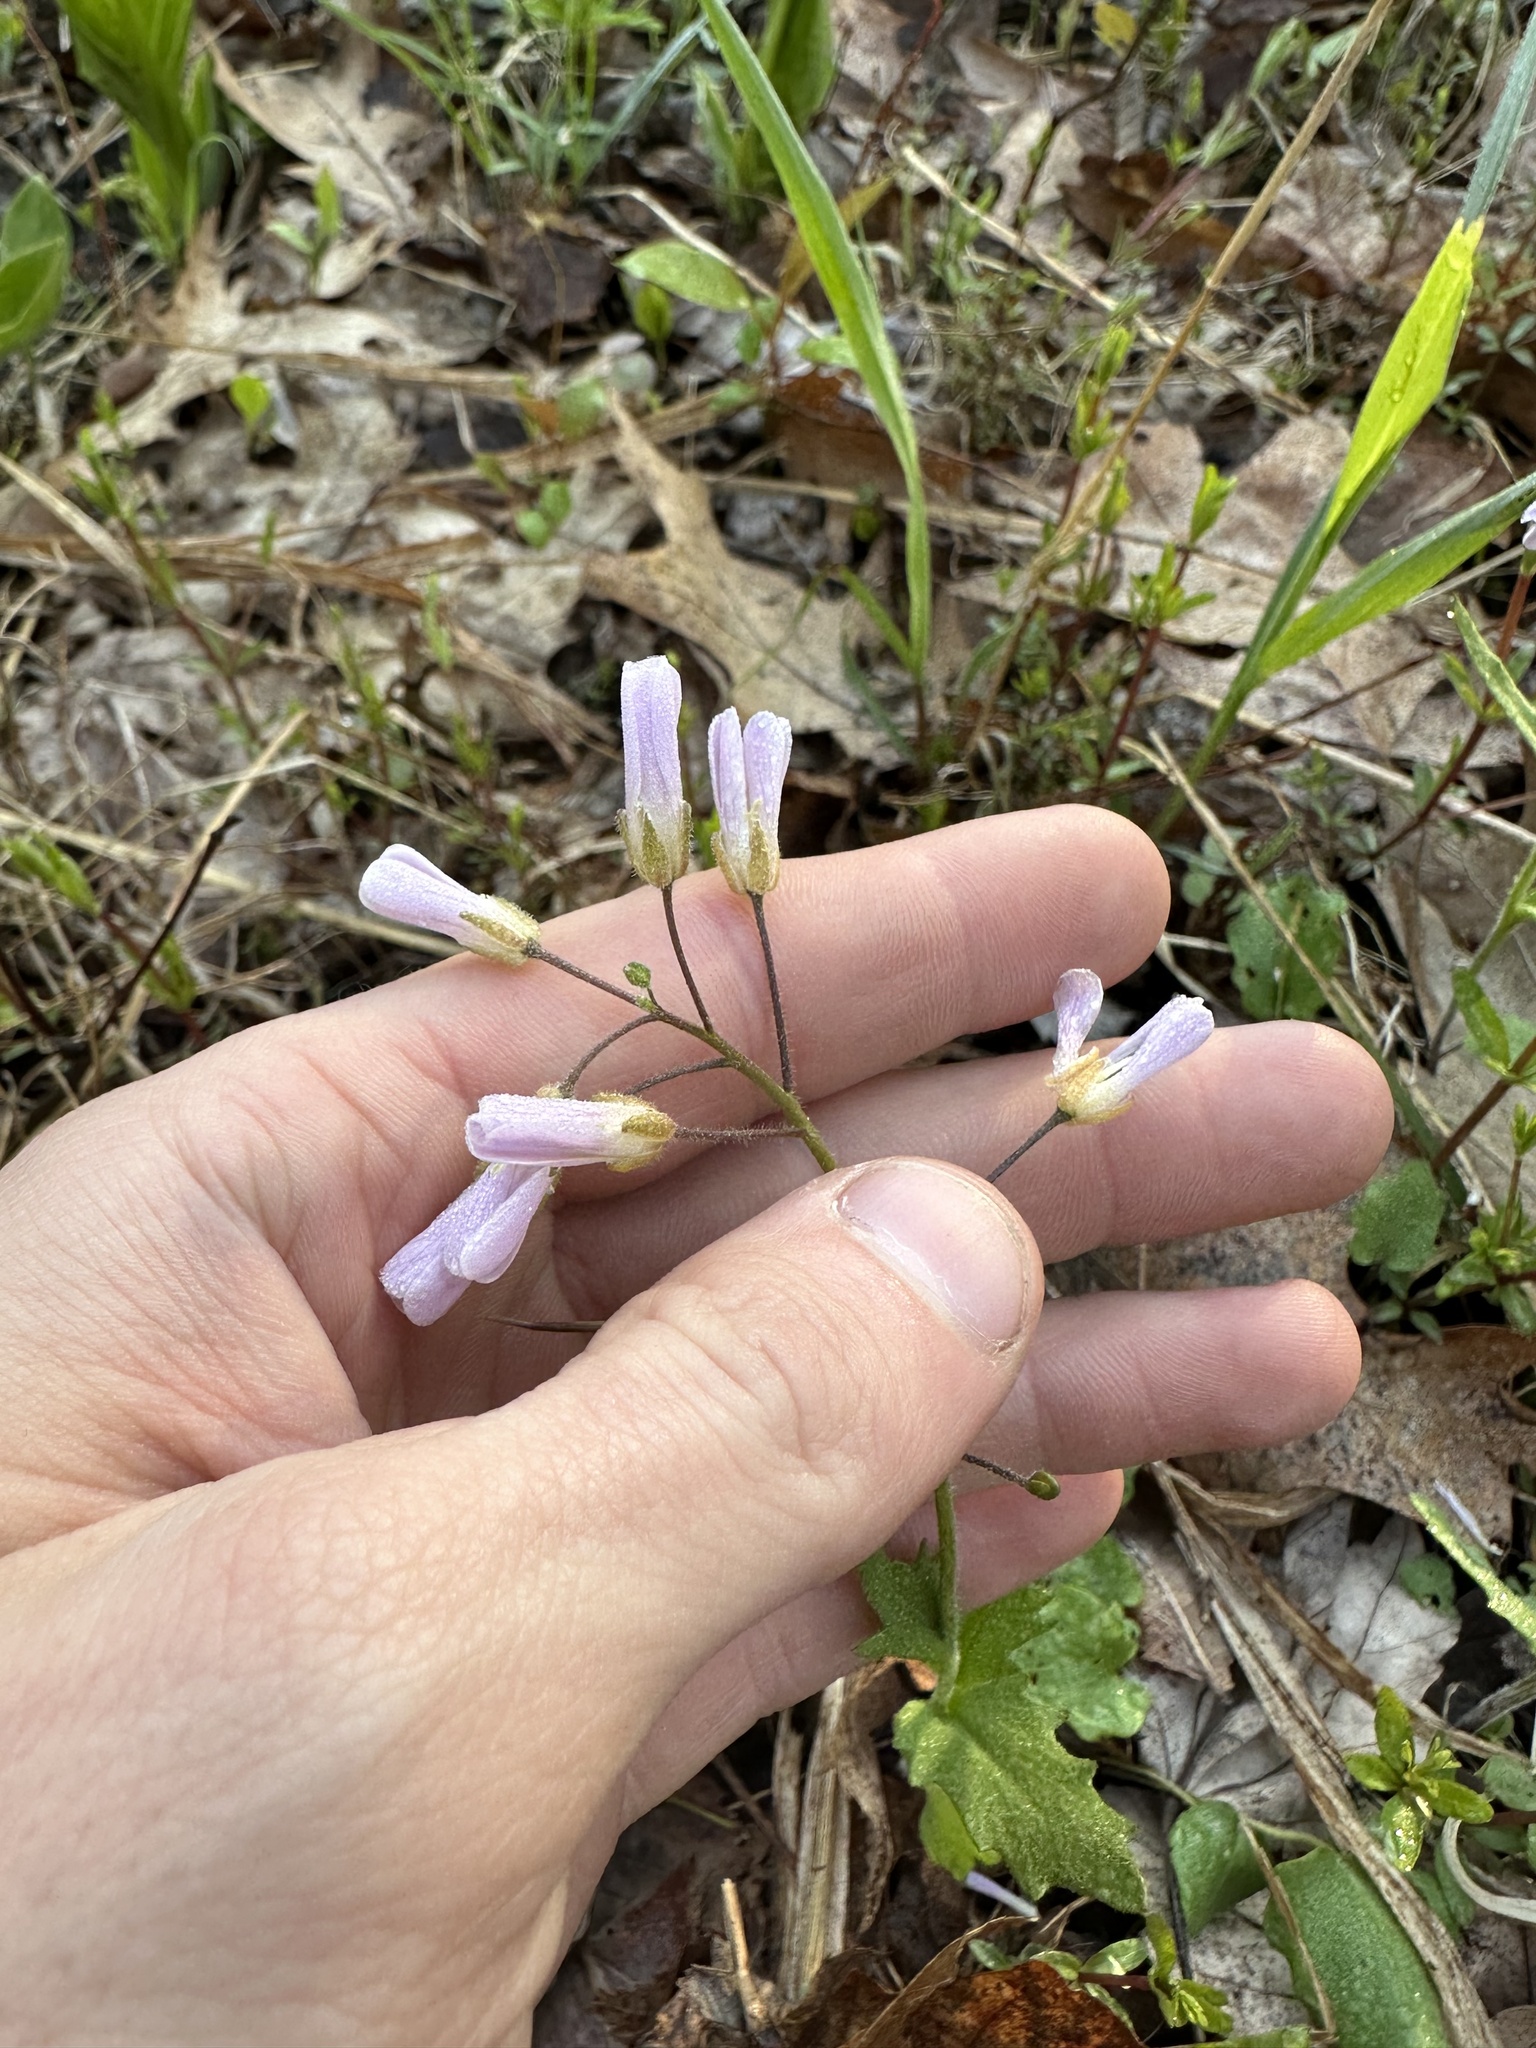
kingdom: Plantae
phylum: Tracheophyta
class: Magnoliopsida
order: Brassicales
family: Brassicaceae
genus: Cardamine
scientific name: Cardamine douglassii
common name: Purple cress
